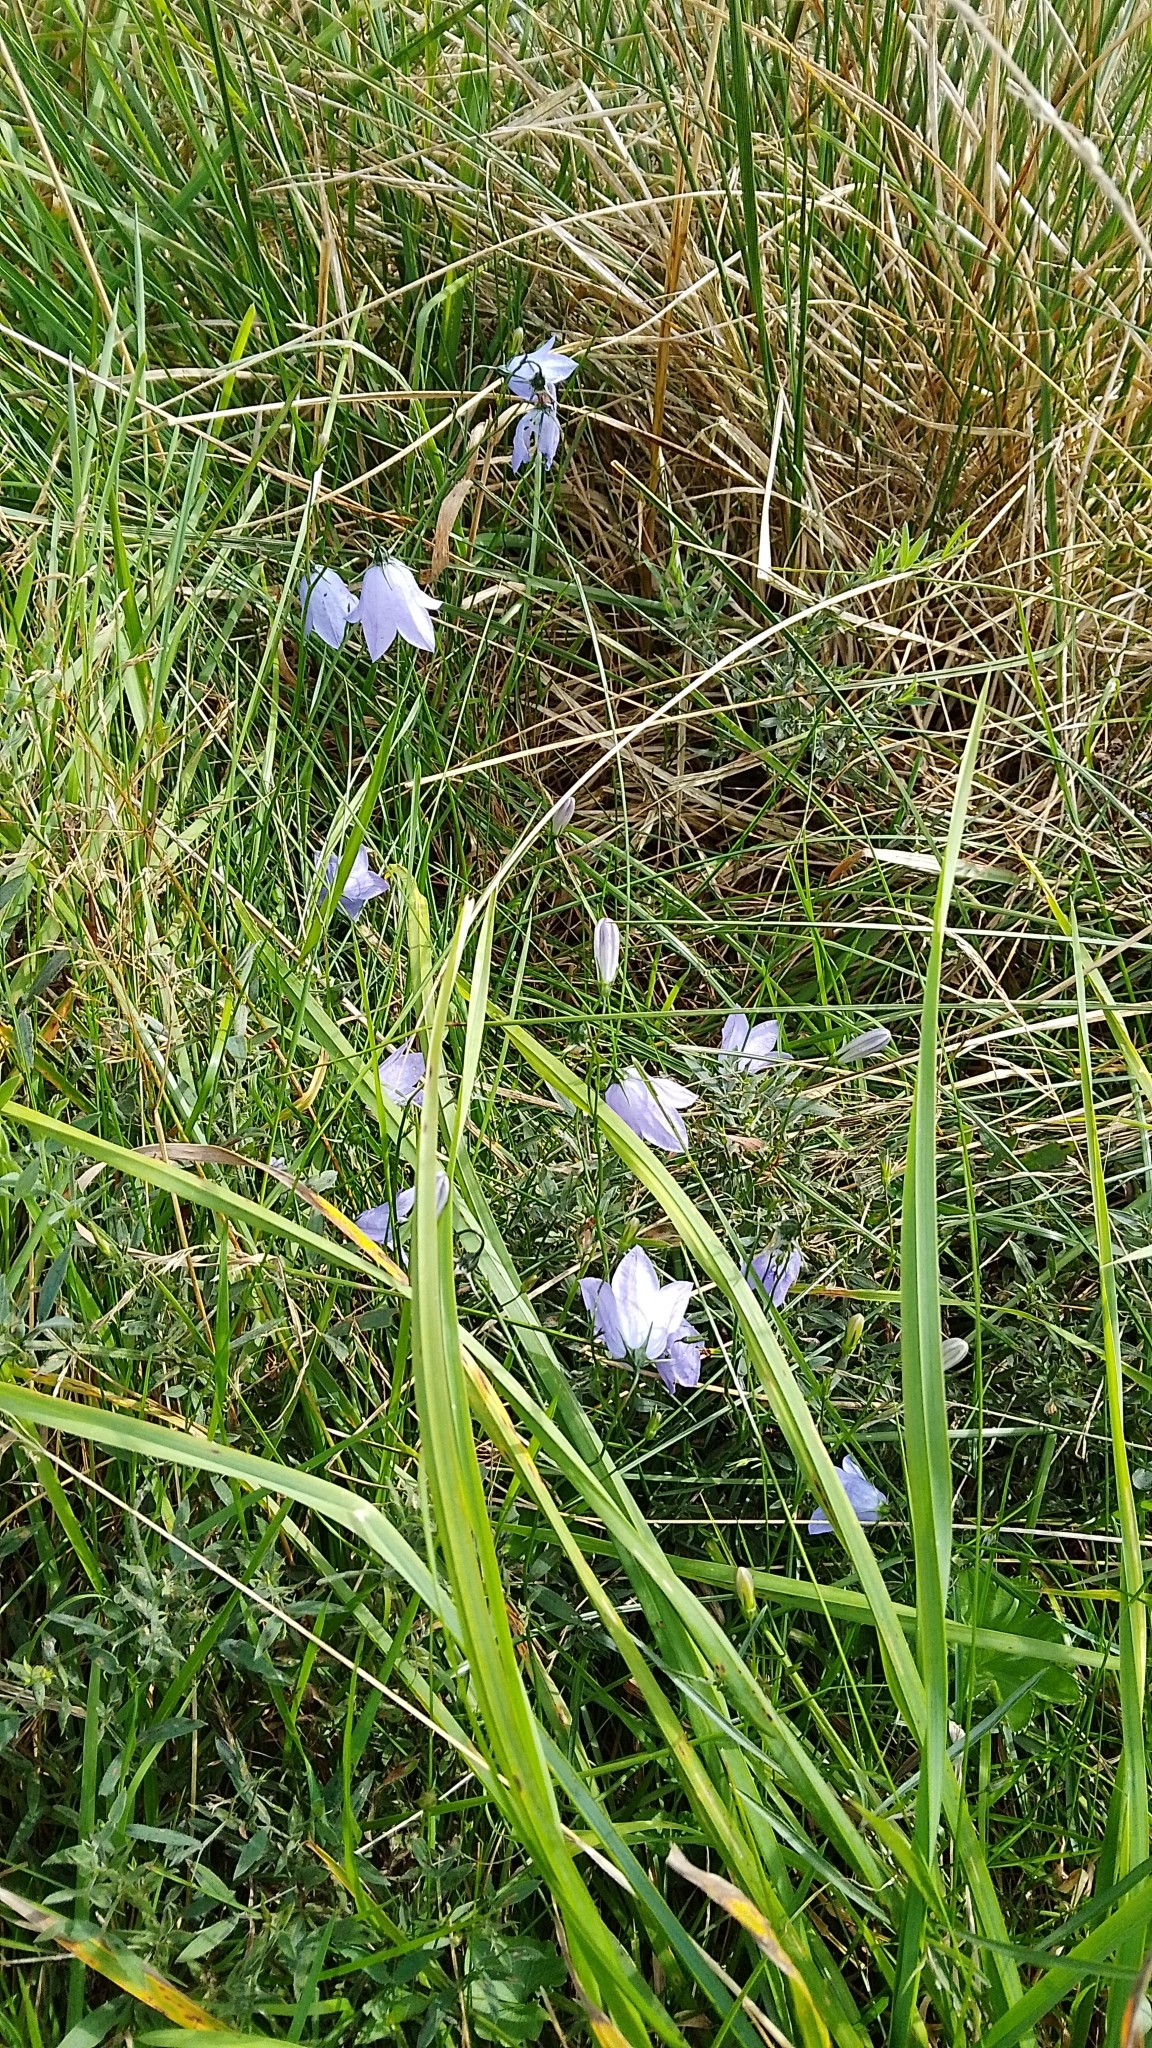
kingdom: Plantae
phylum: Tracheophyta
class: Magnoliopsida
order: Asterales
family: Campanulaceae
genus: Campanula
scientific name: Campanula rotundifolia
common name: Harebell
